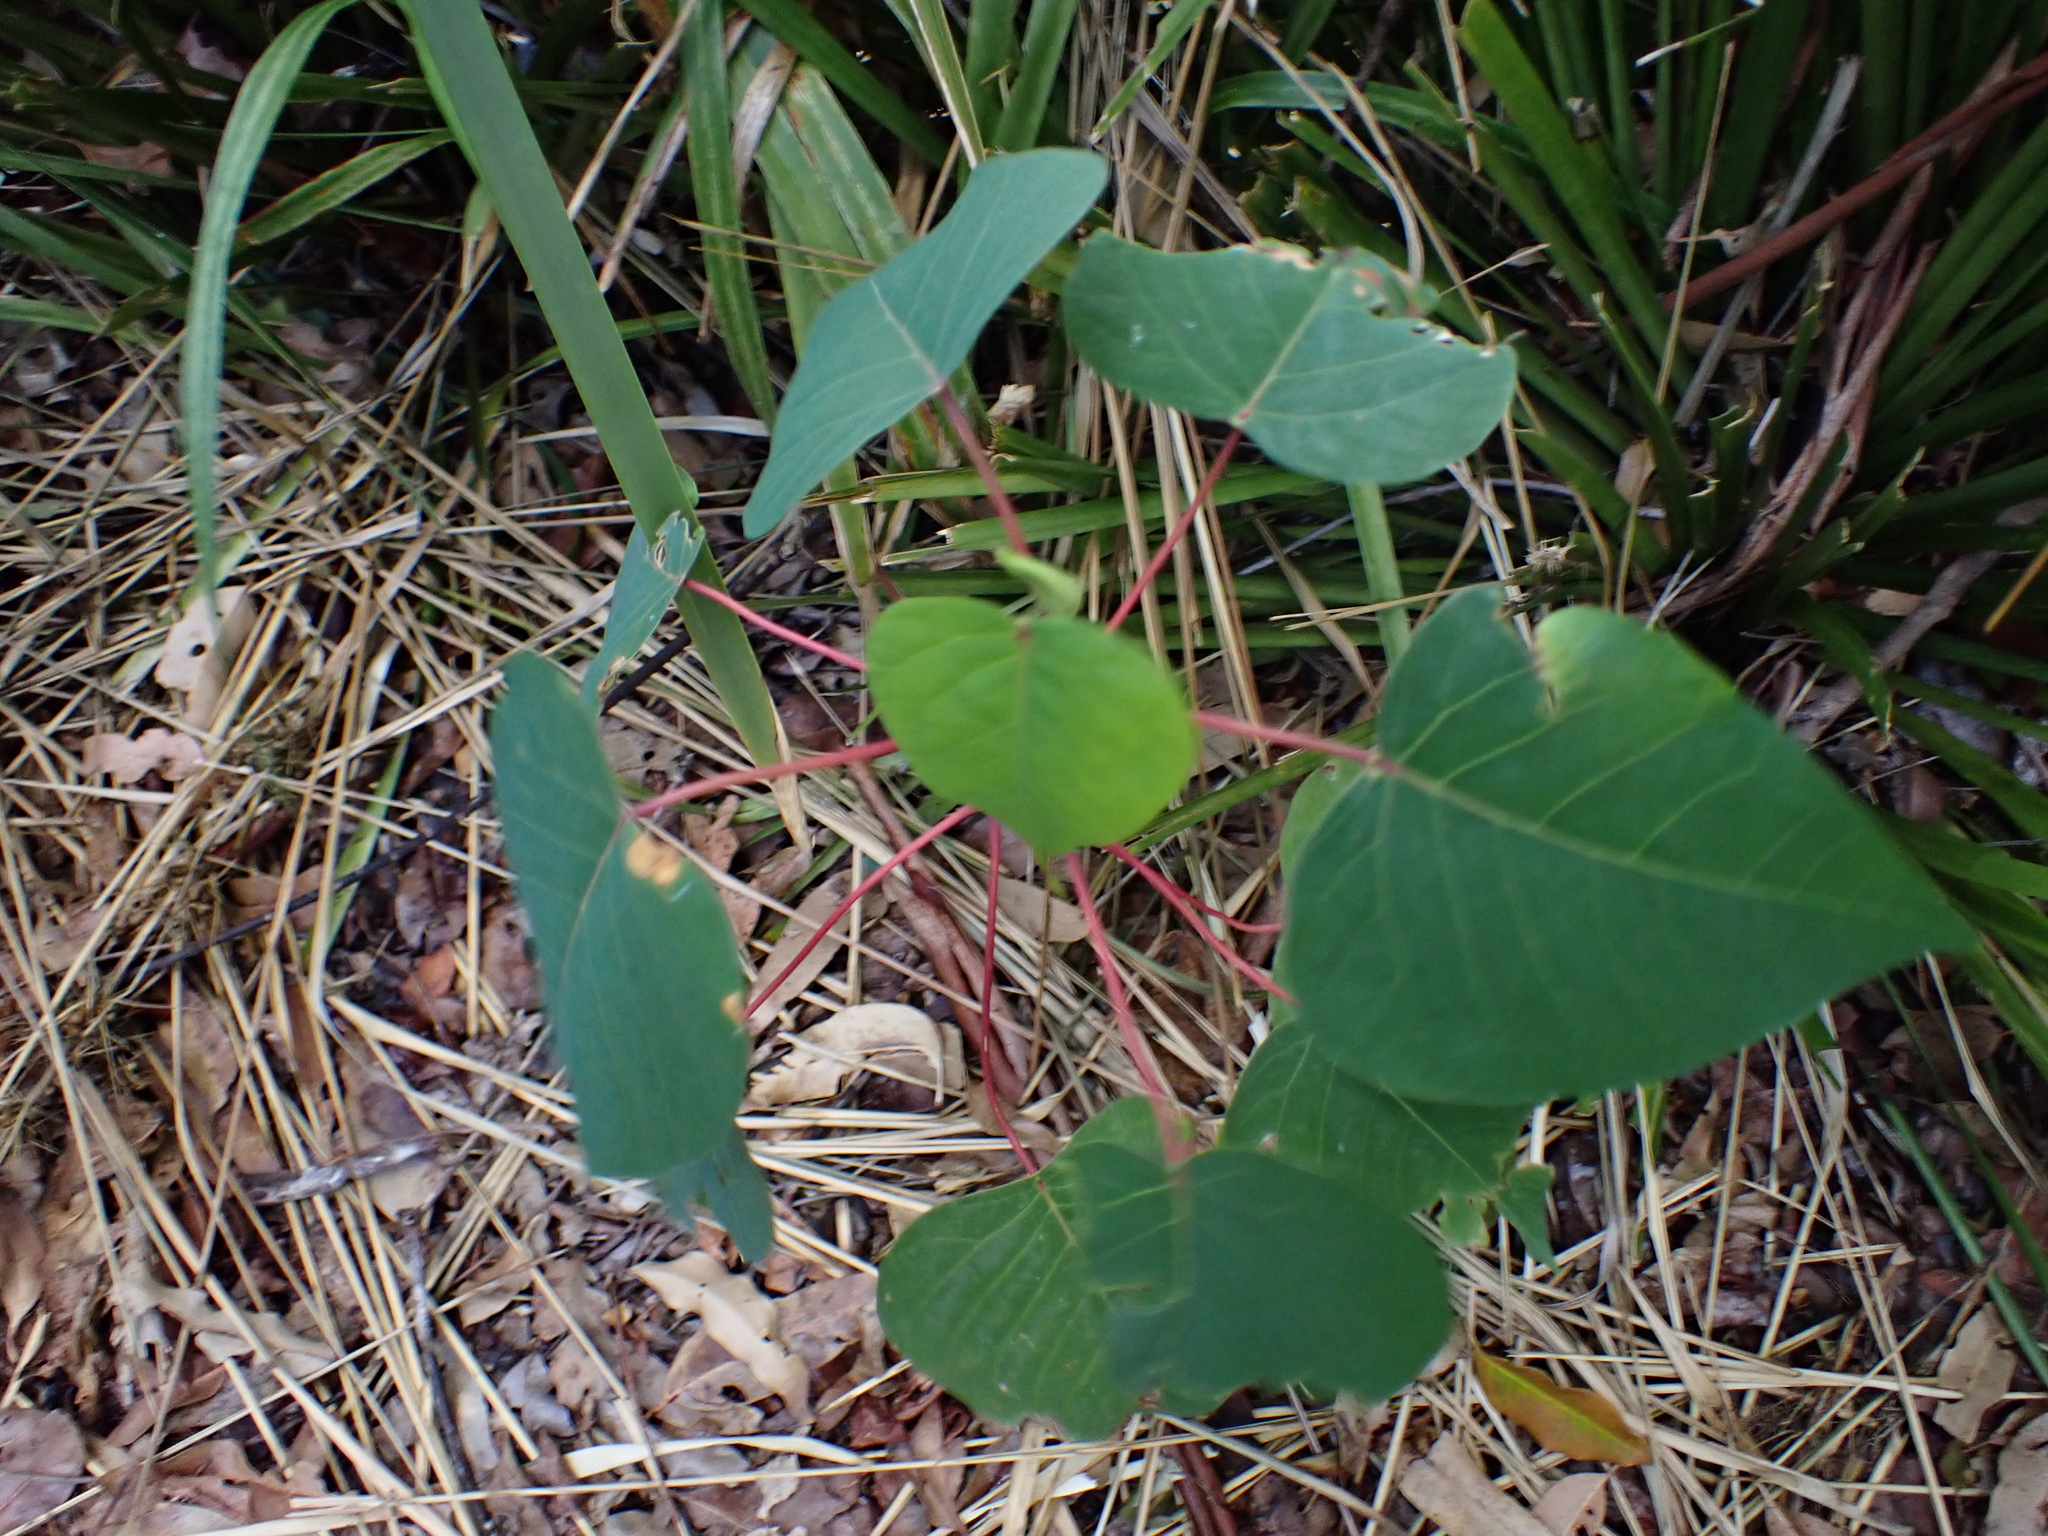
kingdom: Plantae
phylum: Tracheophyta
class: Magnoliopsida
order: Malpighiales
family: Euphorbiaceae
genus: Homalanthus
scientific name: Homalanthus populifolius
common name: Queensland poplar
